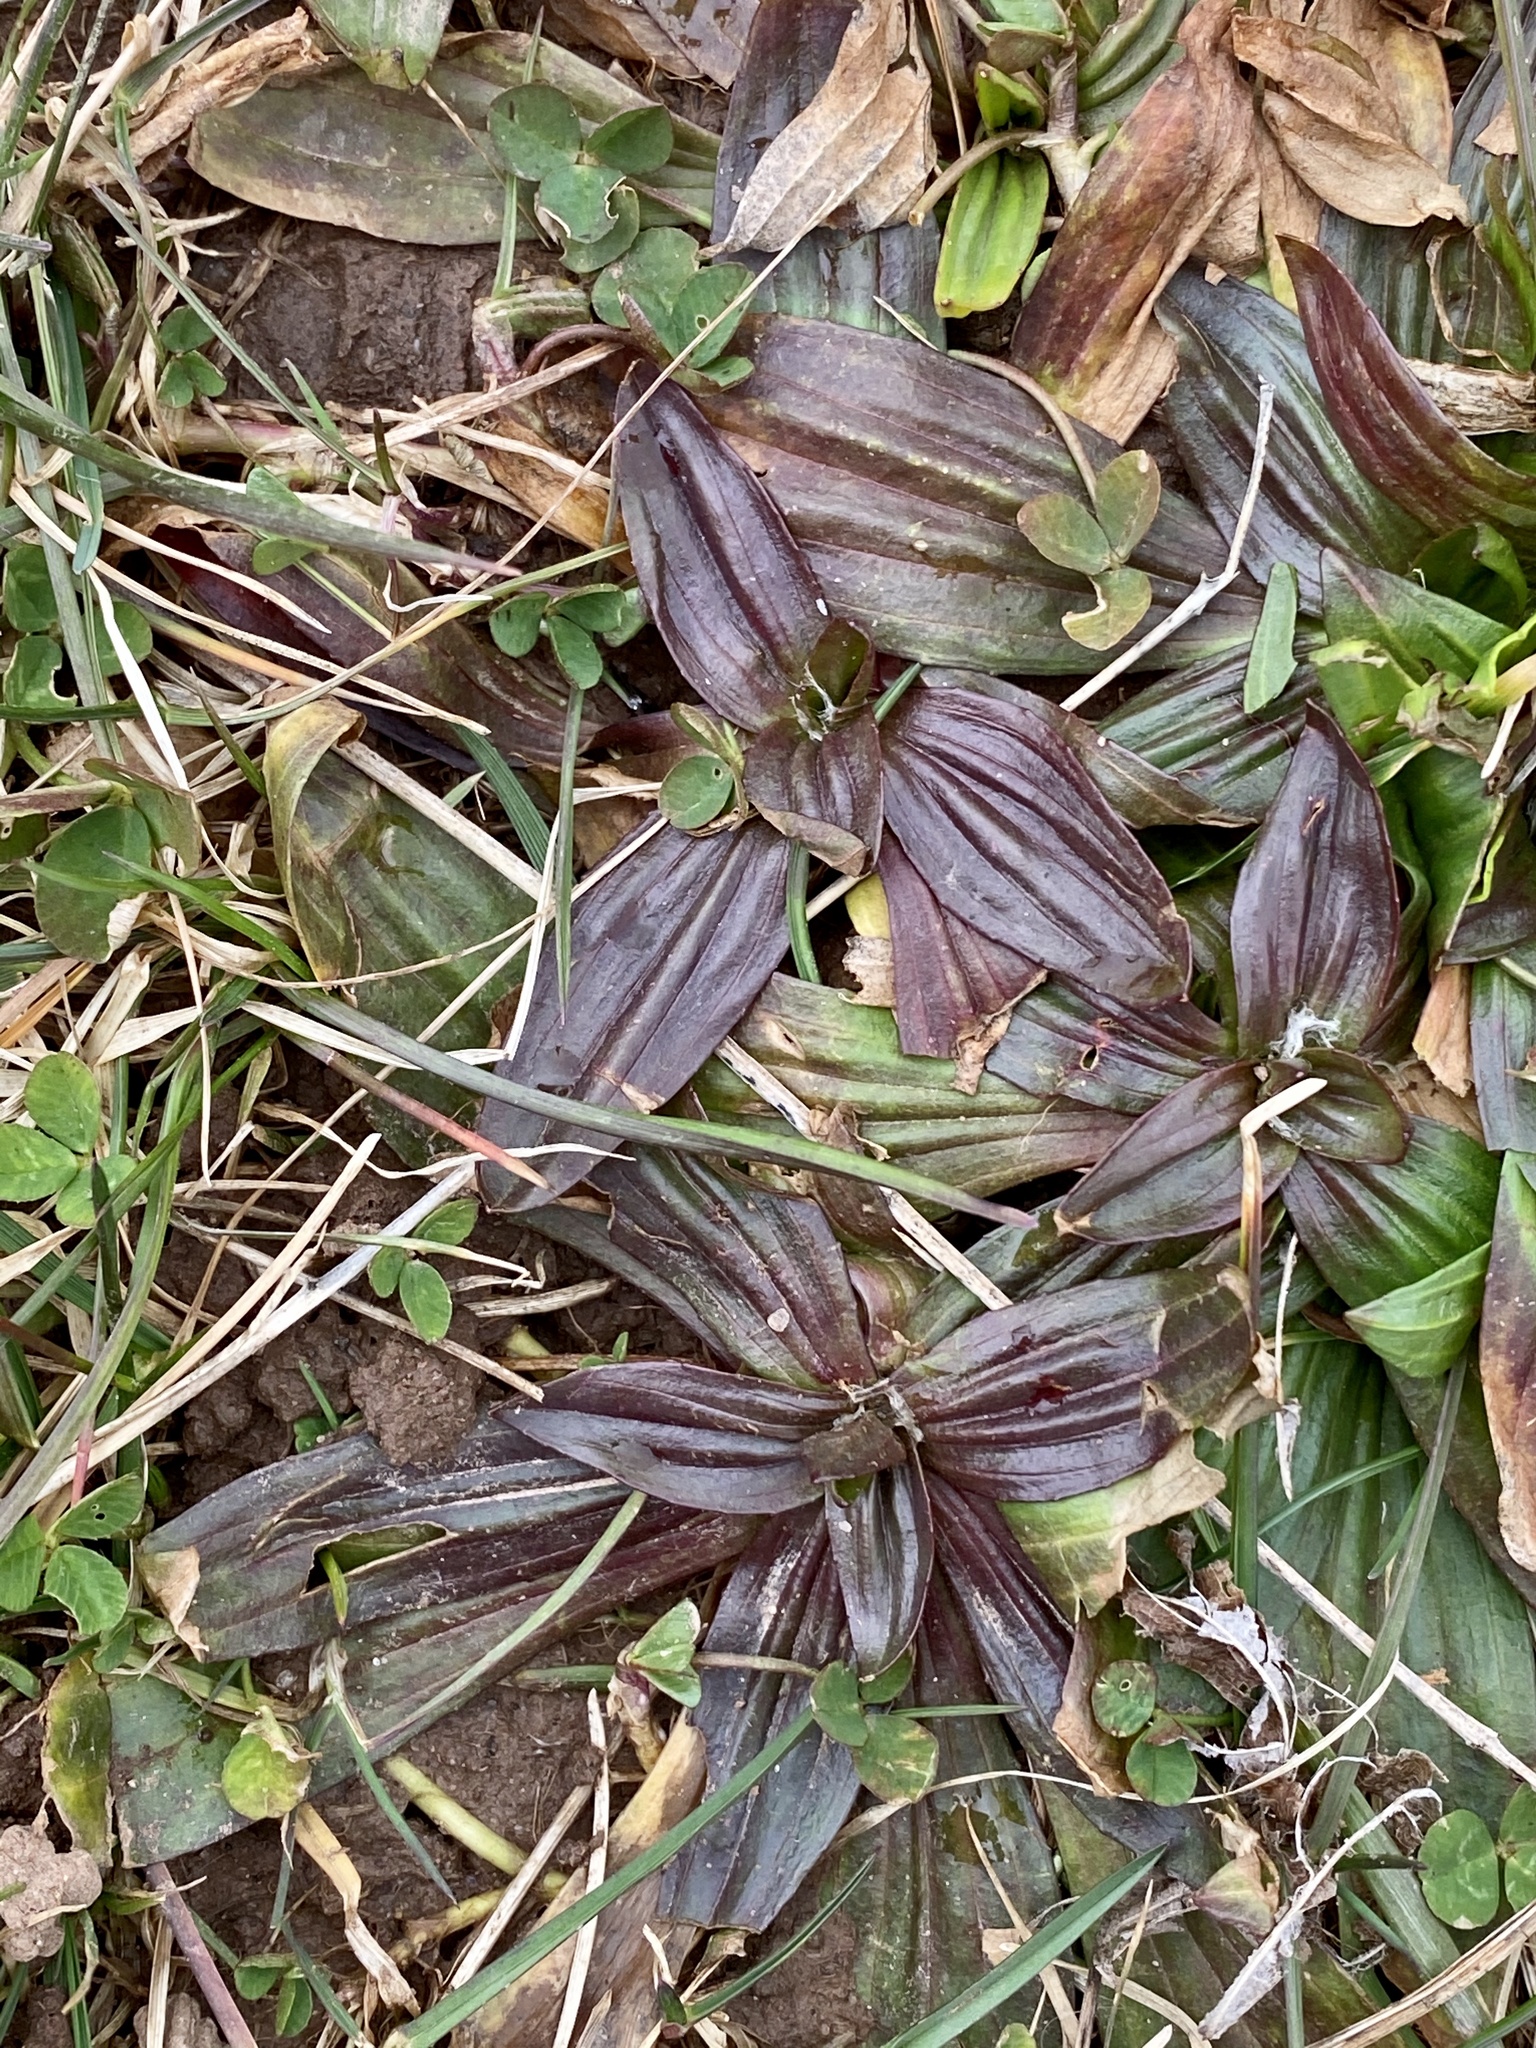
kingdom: Plantae
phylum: Tracheophyta
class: Magnoliopsida
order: Lamiales
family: Plantaginaceae
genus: Plantago
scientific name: Plantago lanceolata
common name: Ribwort plantain
